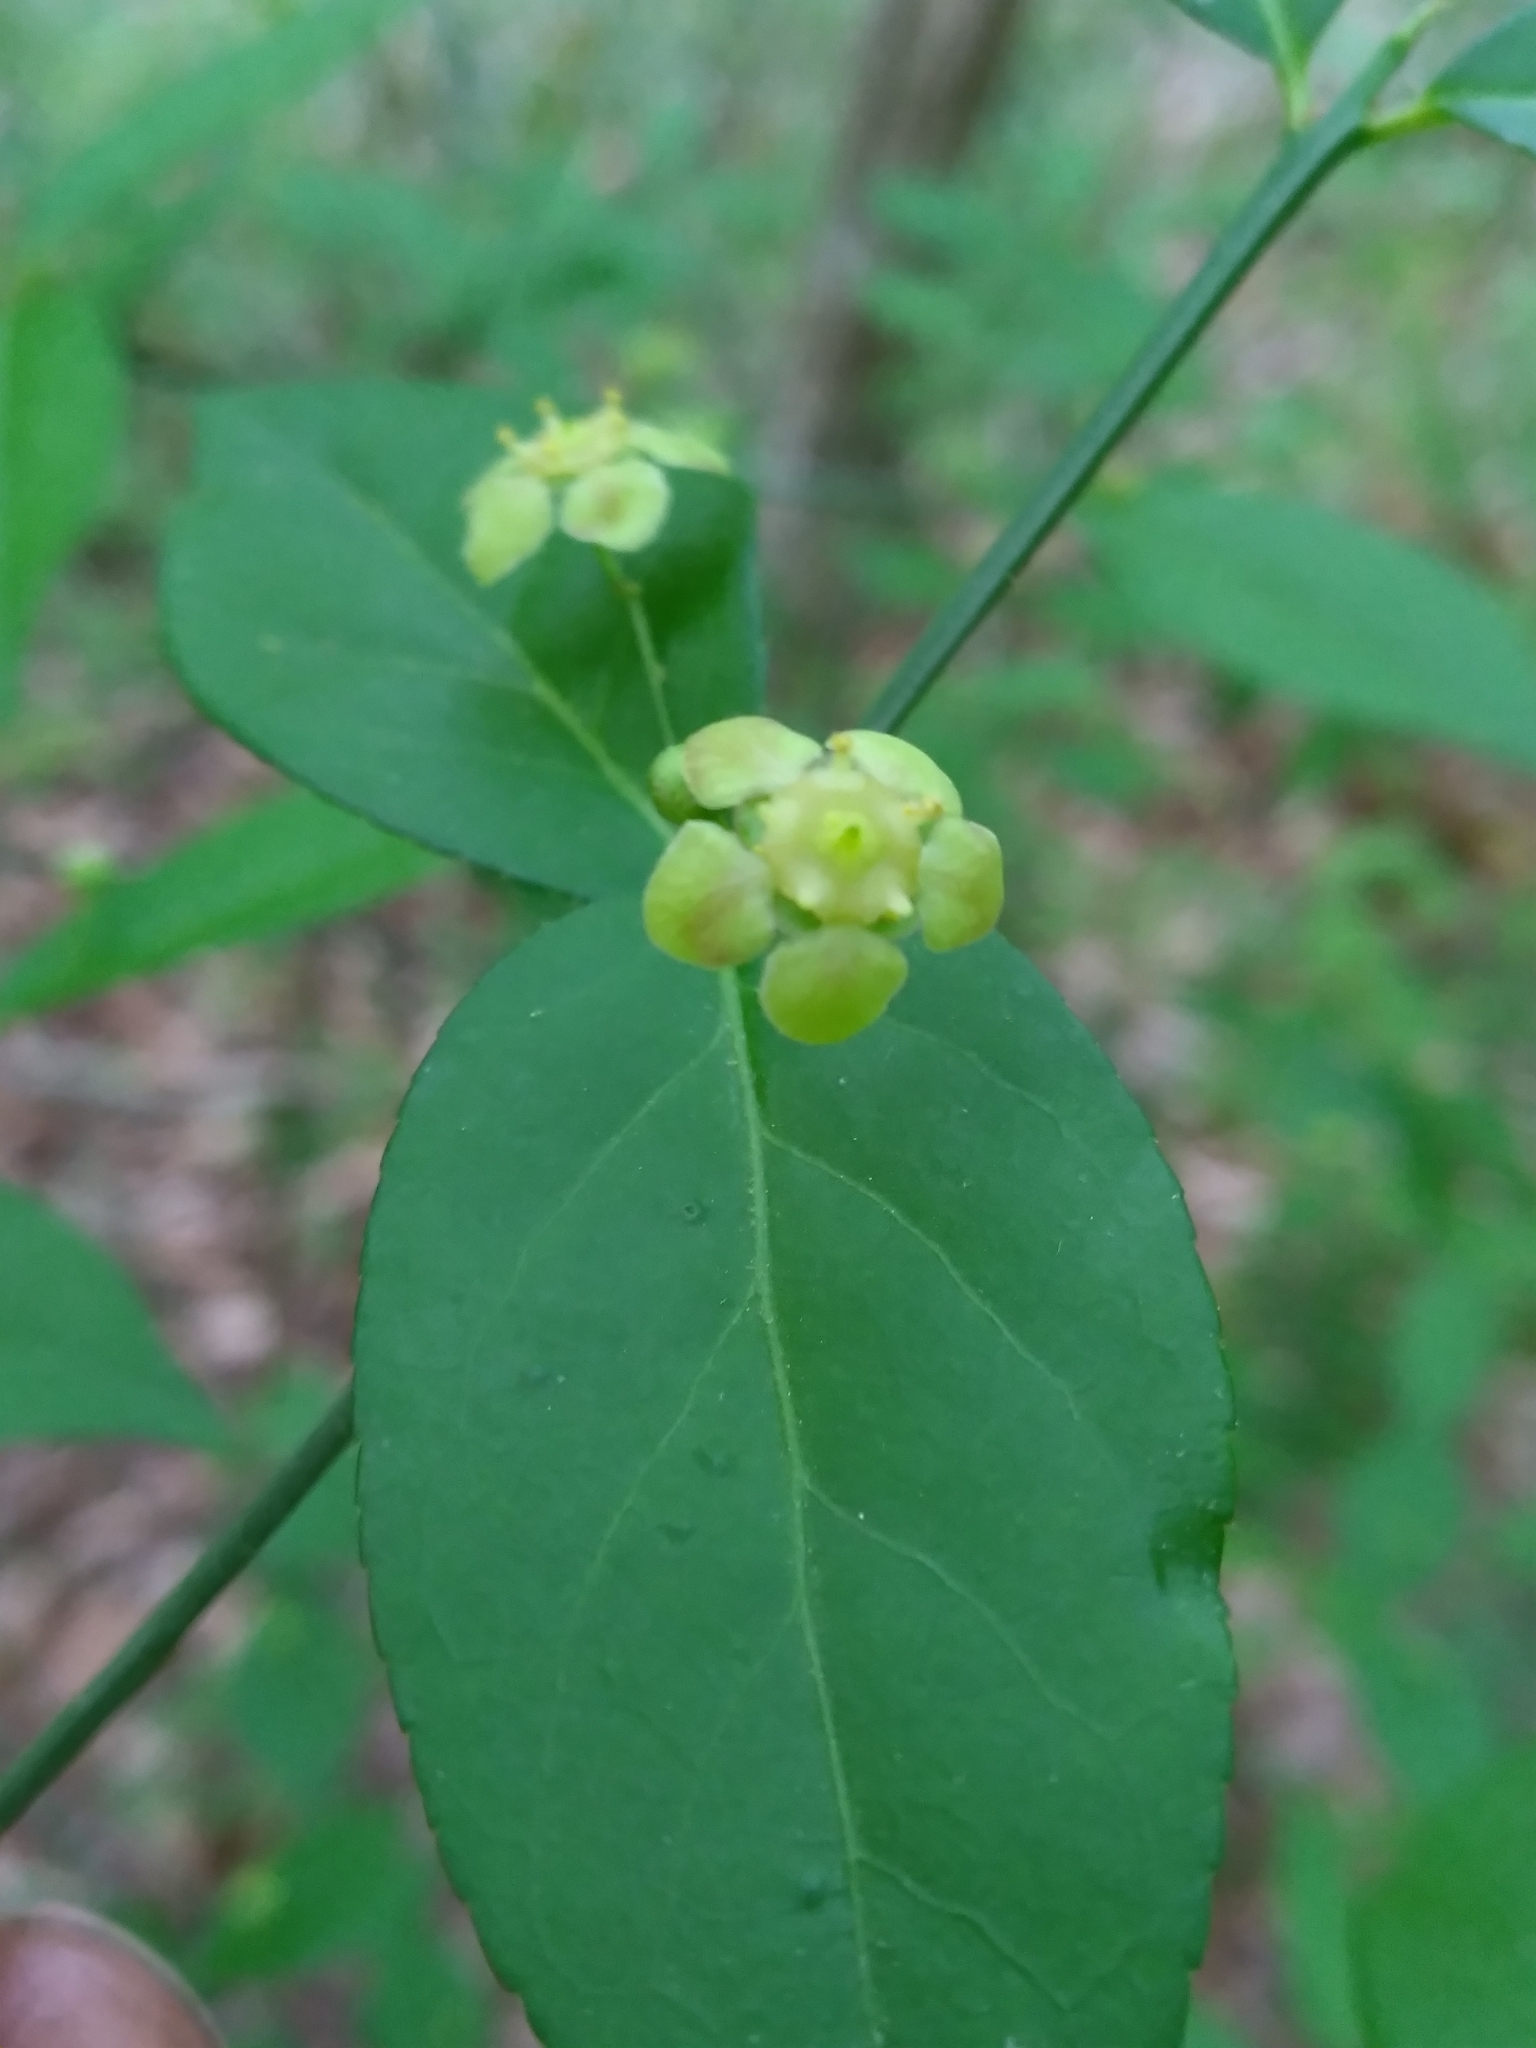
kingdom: Plantae
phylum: Tracheophyta
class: Magnoliopsida
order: Celastrales
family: Celastraceae
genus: Euonymus
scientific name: Euonymus americanus
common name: Bursting-heart
